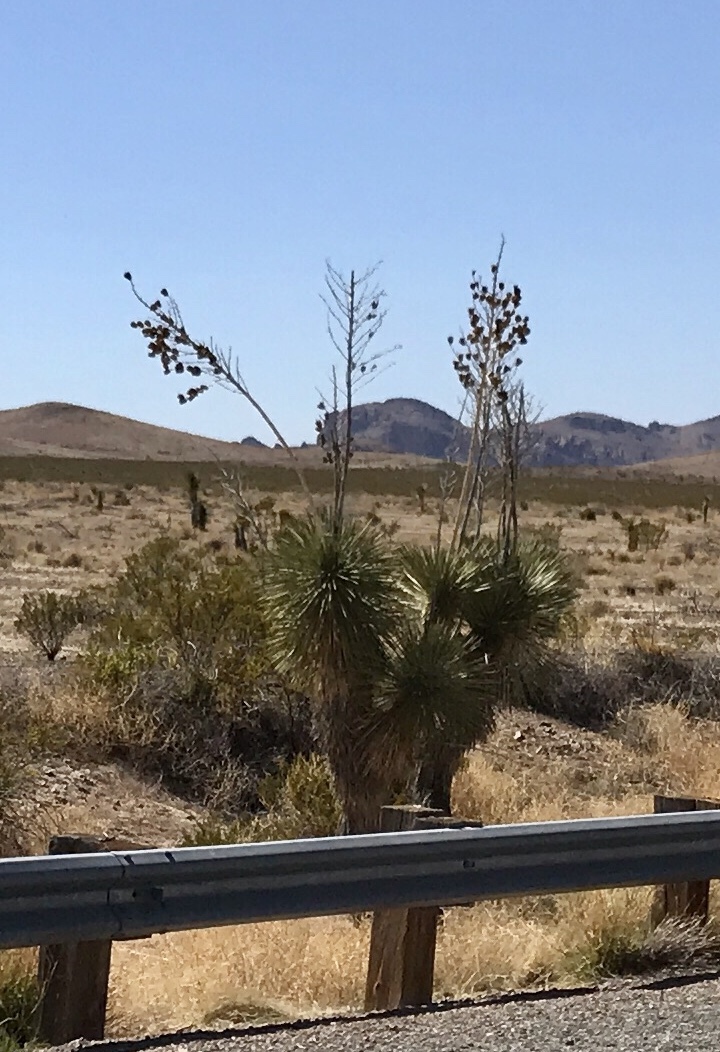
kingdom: Plantae
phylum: Tracheophyta
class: Liliopsida
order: Asparagales
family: Asparagaceae
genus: Yucca
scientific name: Yucca elata
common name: Palmella
